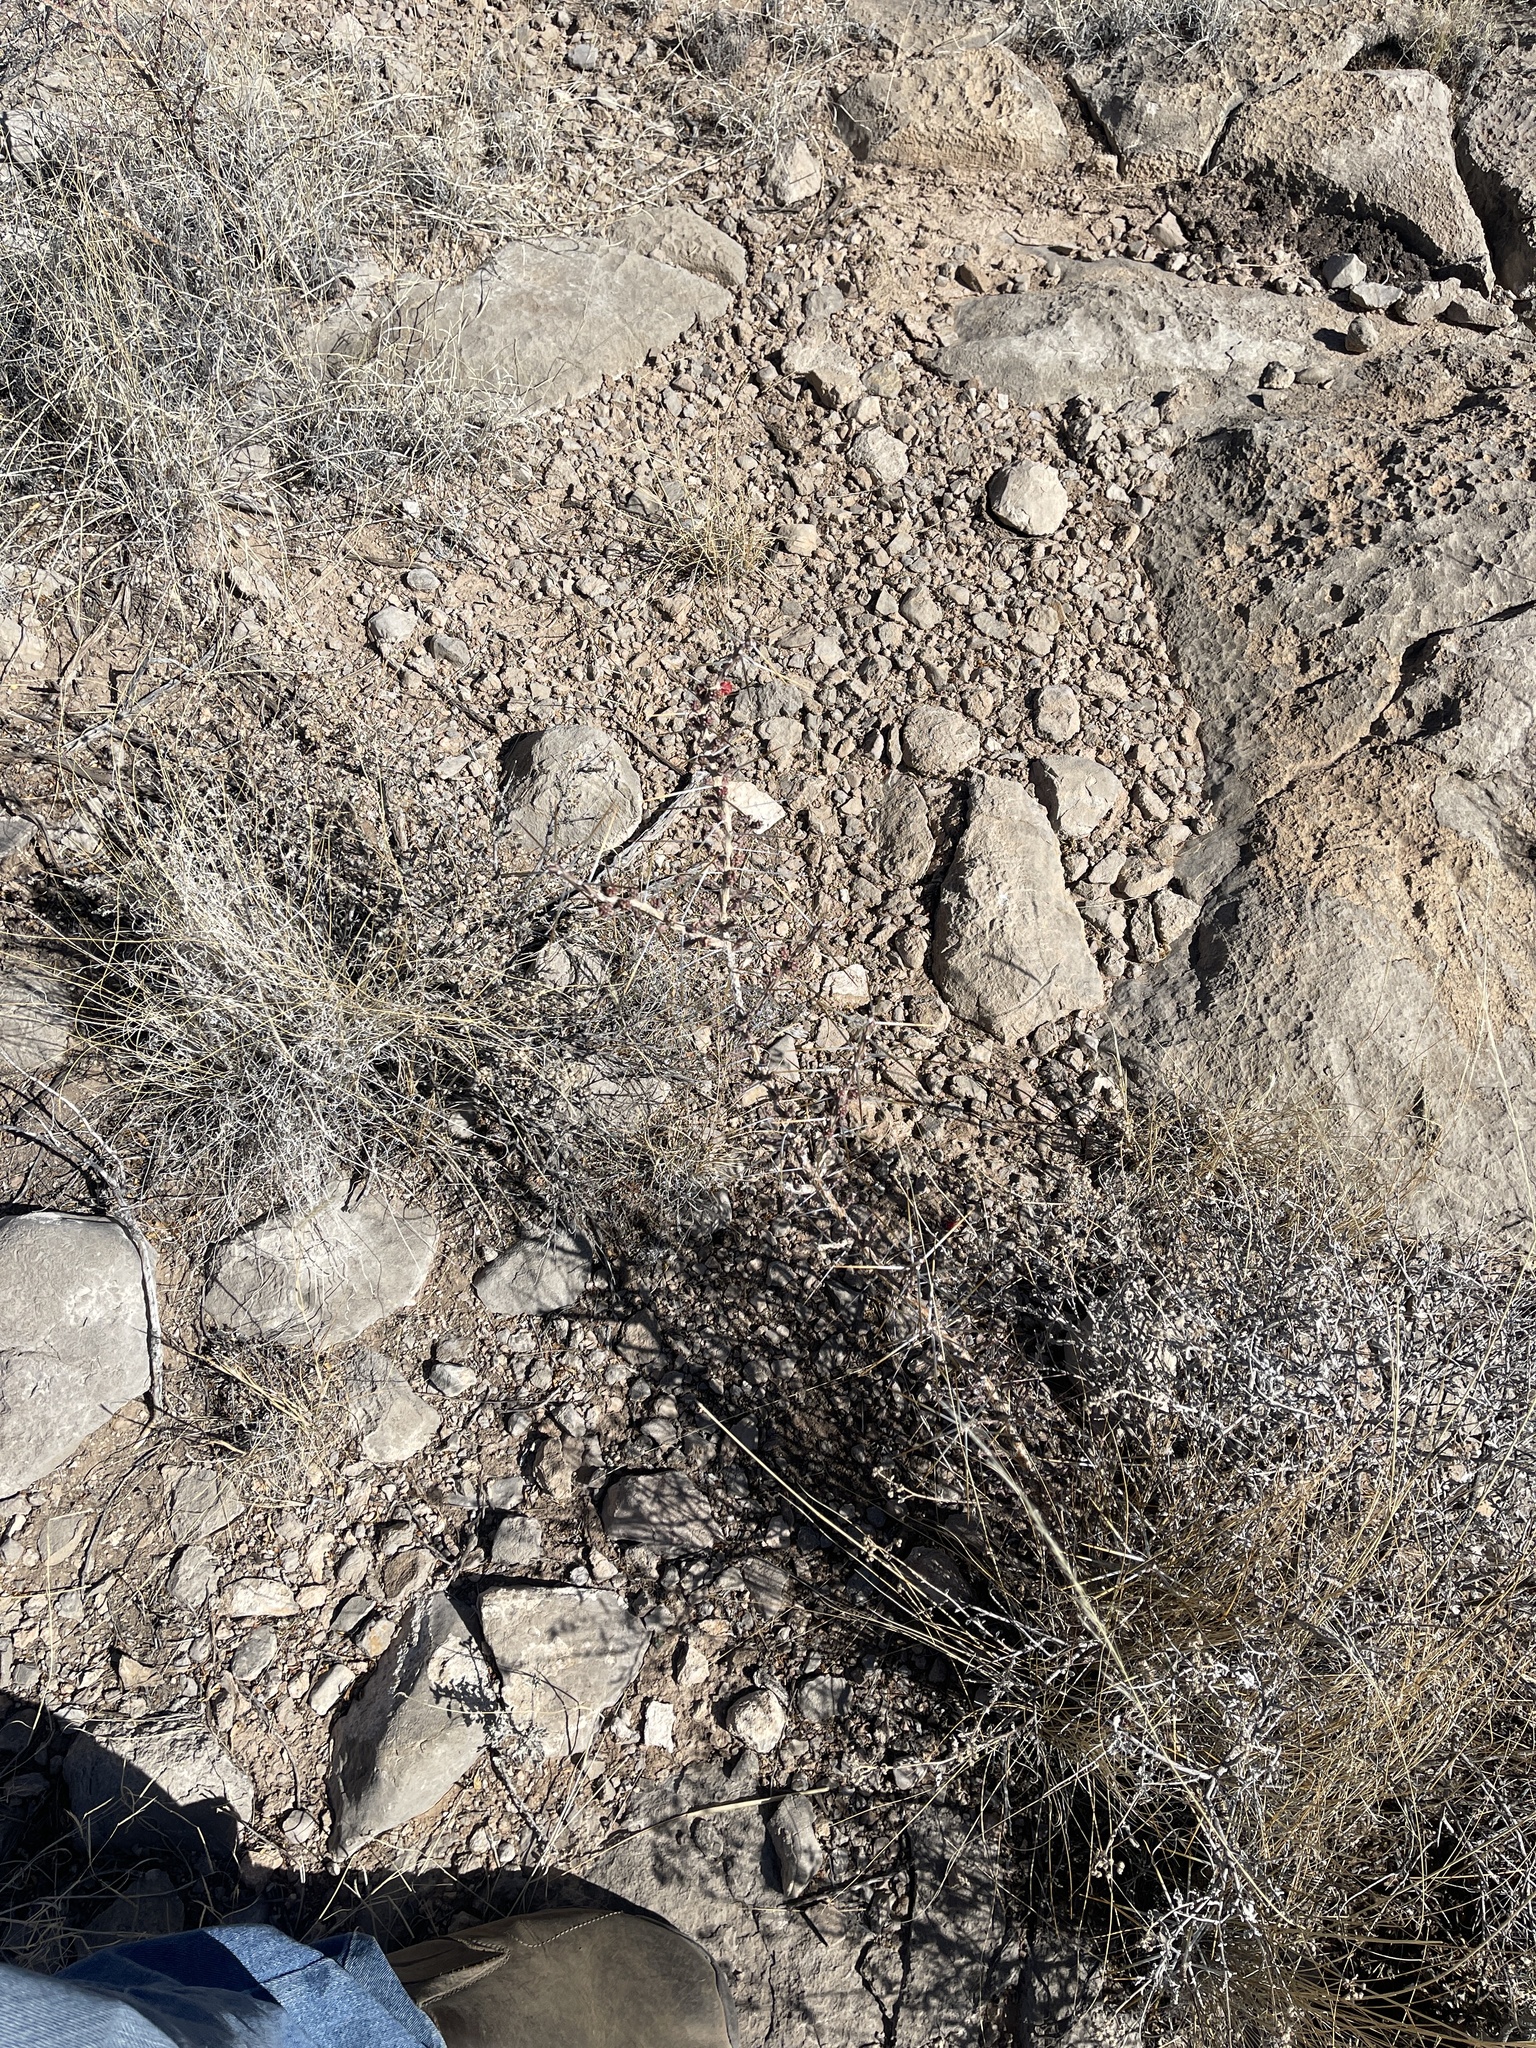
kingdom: Plantae
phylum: Tracheophyta
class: Magnoliopsida
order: Caryophyllales
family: Cactaceae
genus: Cylindropuntia
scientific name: Cylindropuntia leptocaulis
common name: Christmas cactus
